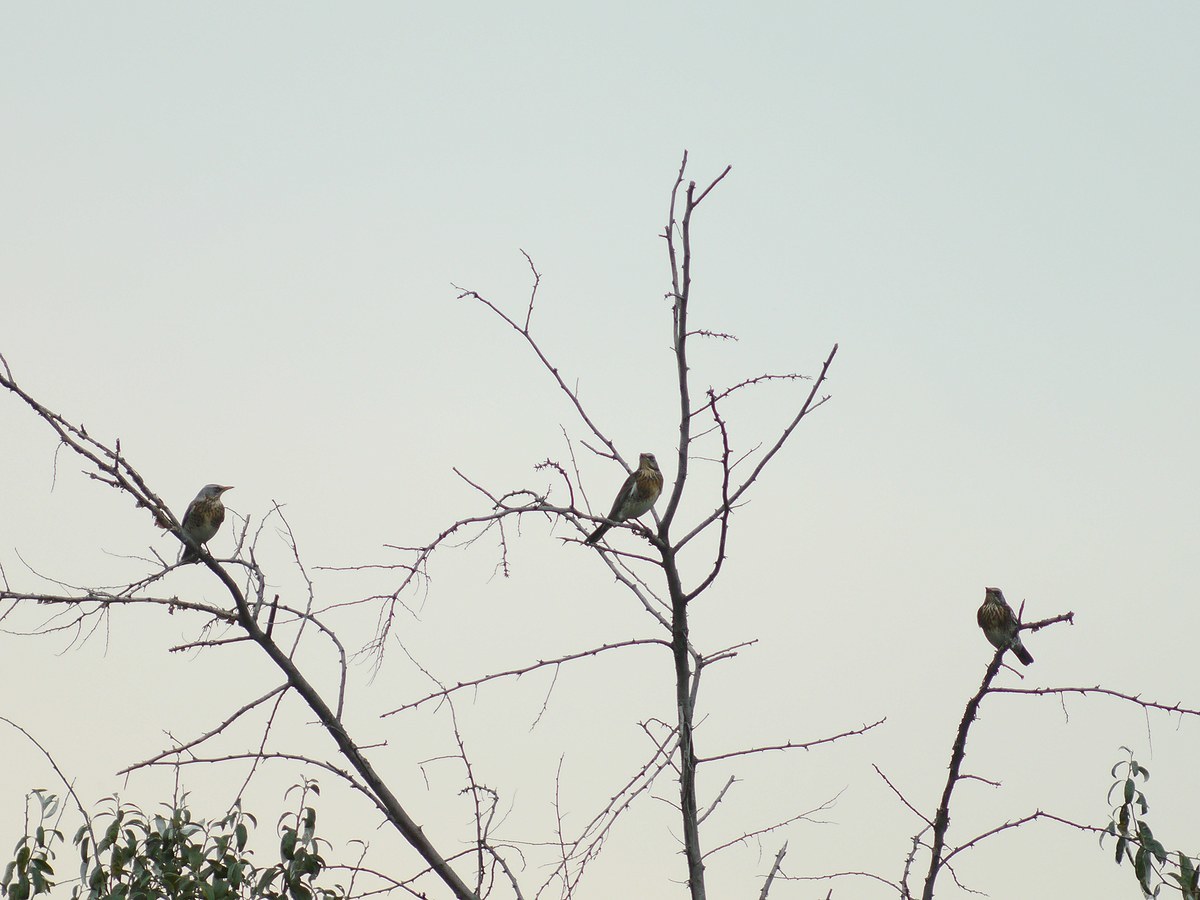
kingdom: Animalia
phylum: Chordata
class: Aves
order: Passeriformes
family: Turdidae
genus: Turdus
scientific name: Turdus pilaris
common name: Fieldfare
